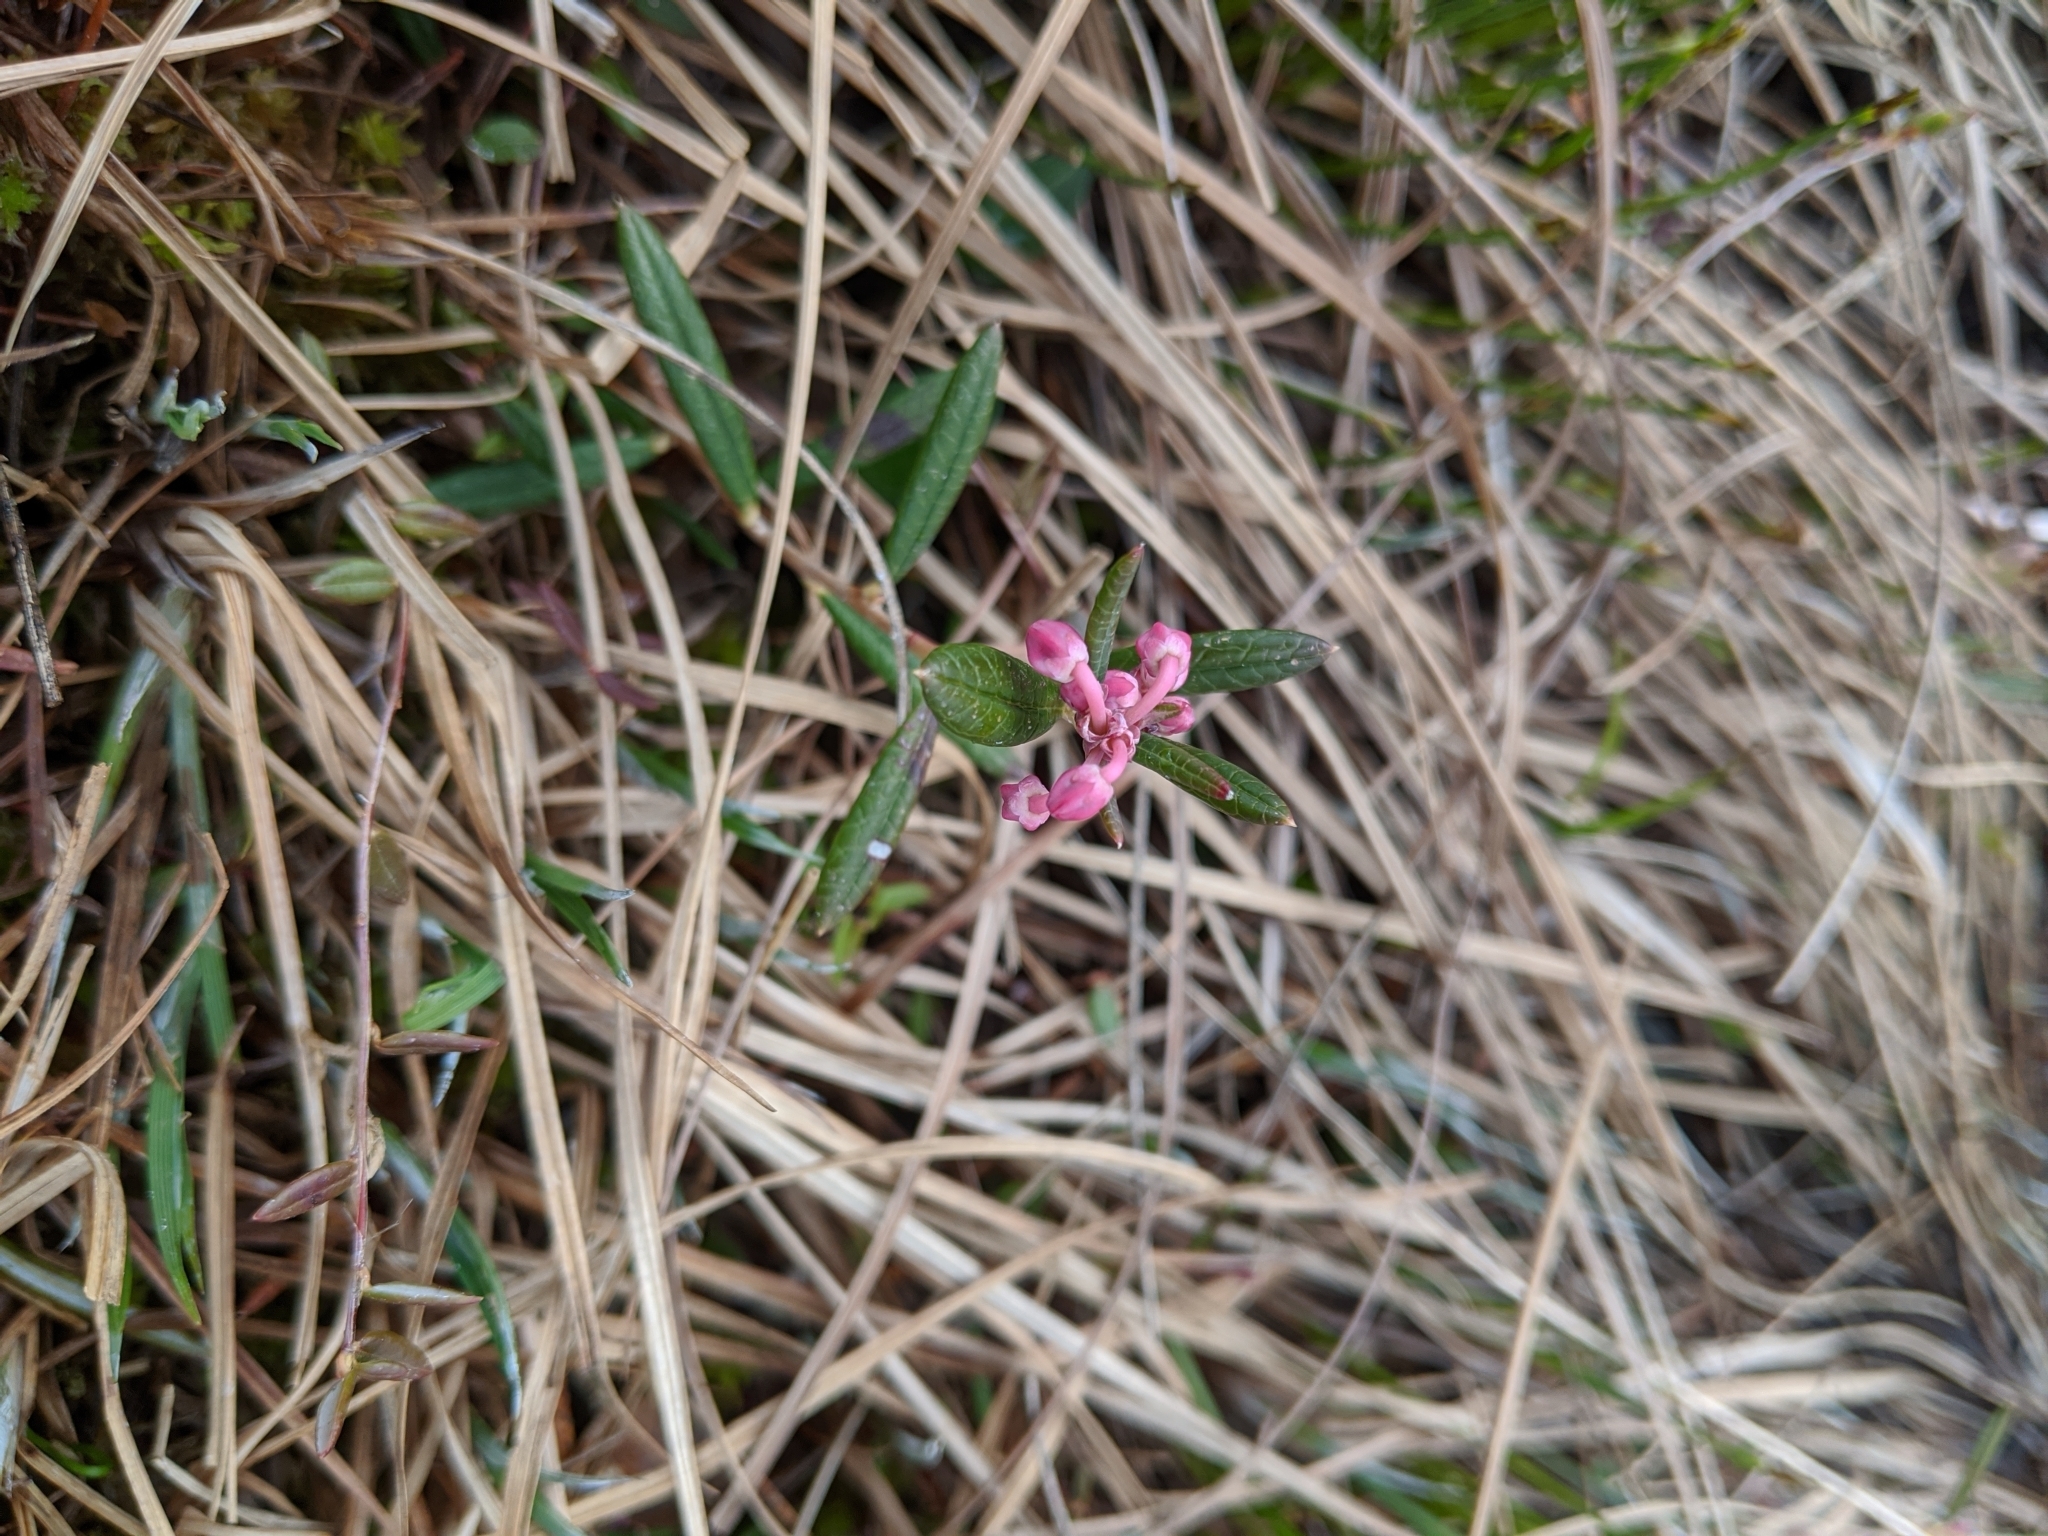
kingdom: Plantae
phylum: Tracheophyta
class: Magnoliopsida
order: Ericales
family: Ericaceae
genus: Andromeda
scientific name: Andromeda polifolia
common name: Bog-rosemary
